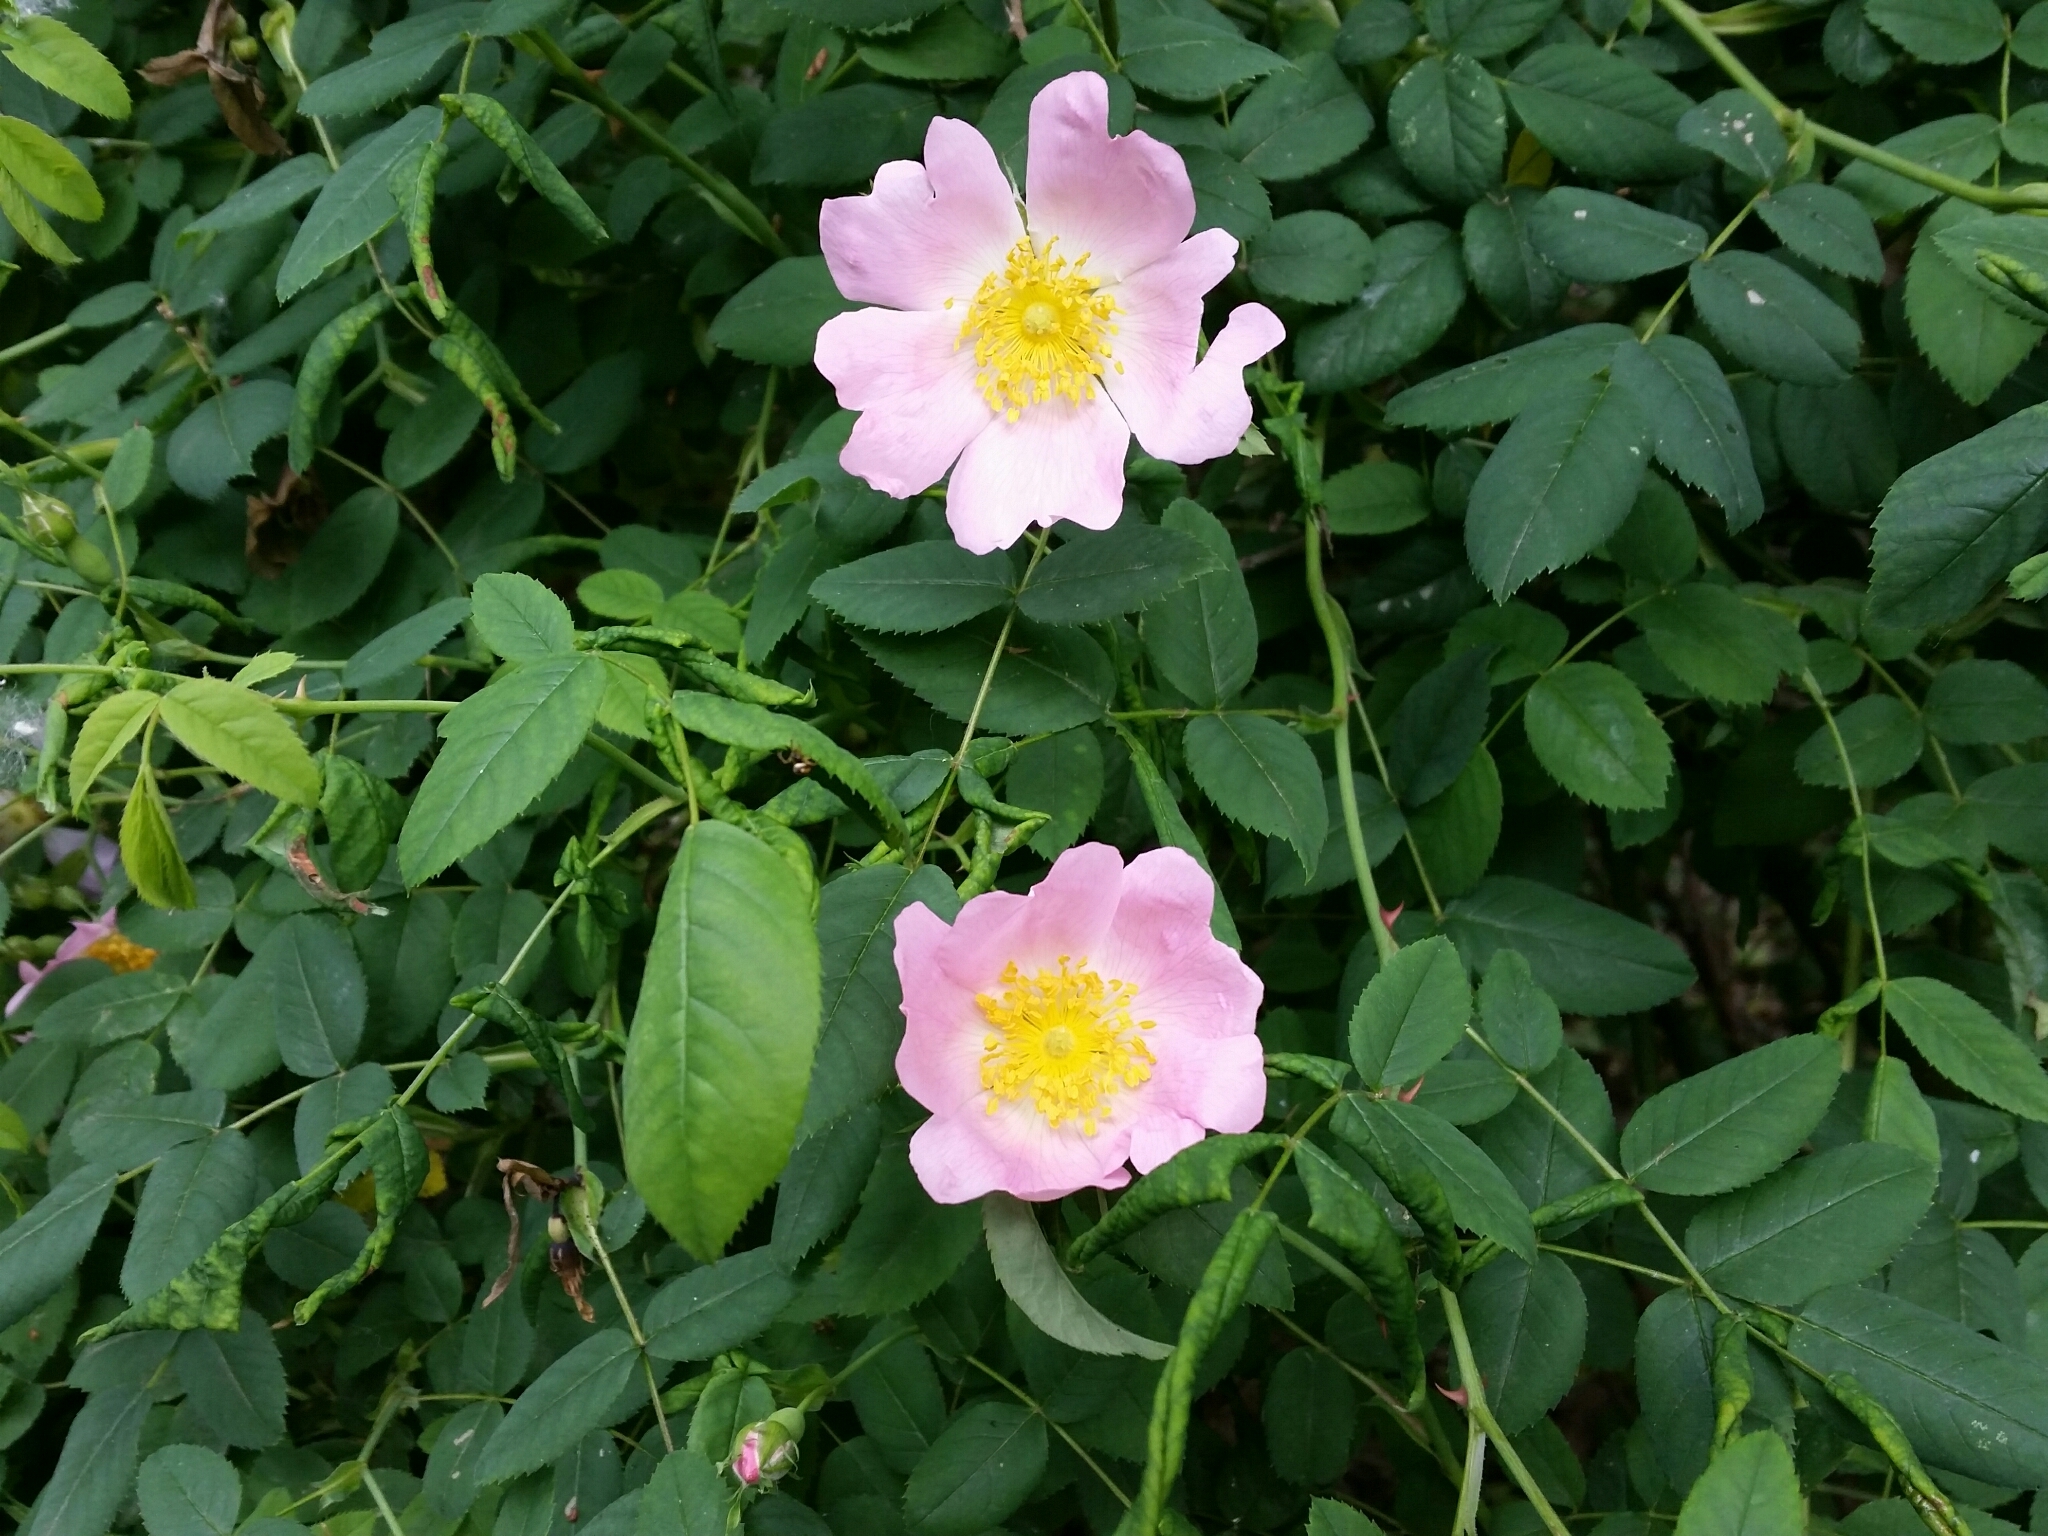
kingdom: Plantae
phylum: Tracheophyta
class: Magnoliopsida
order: Rosales
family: Rosaceae
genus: Rosa
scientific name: Rosa canina
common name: Dog rose
